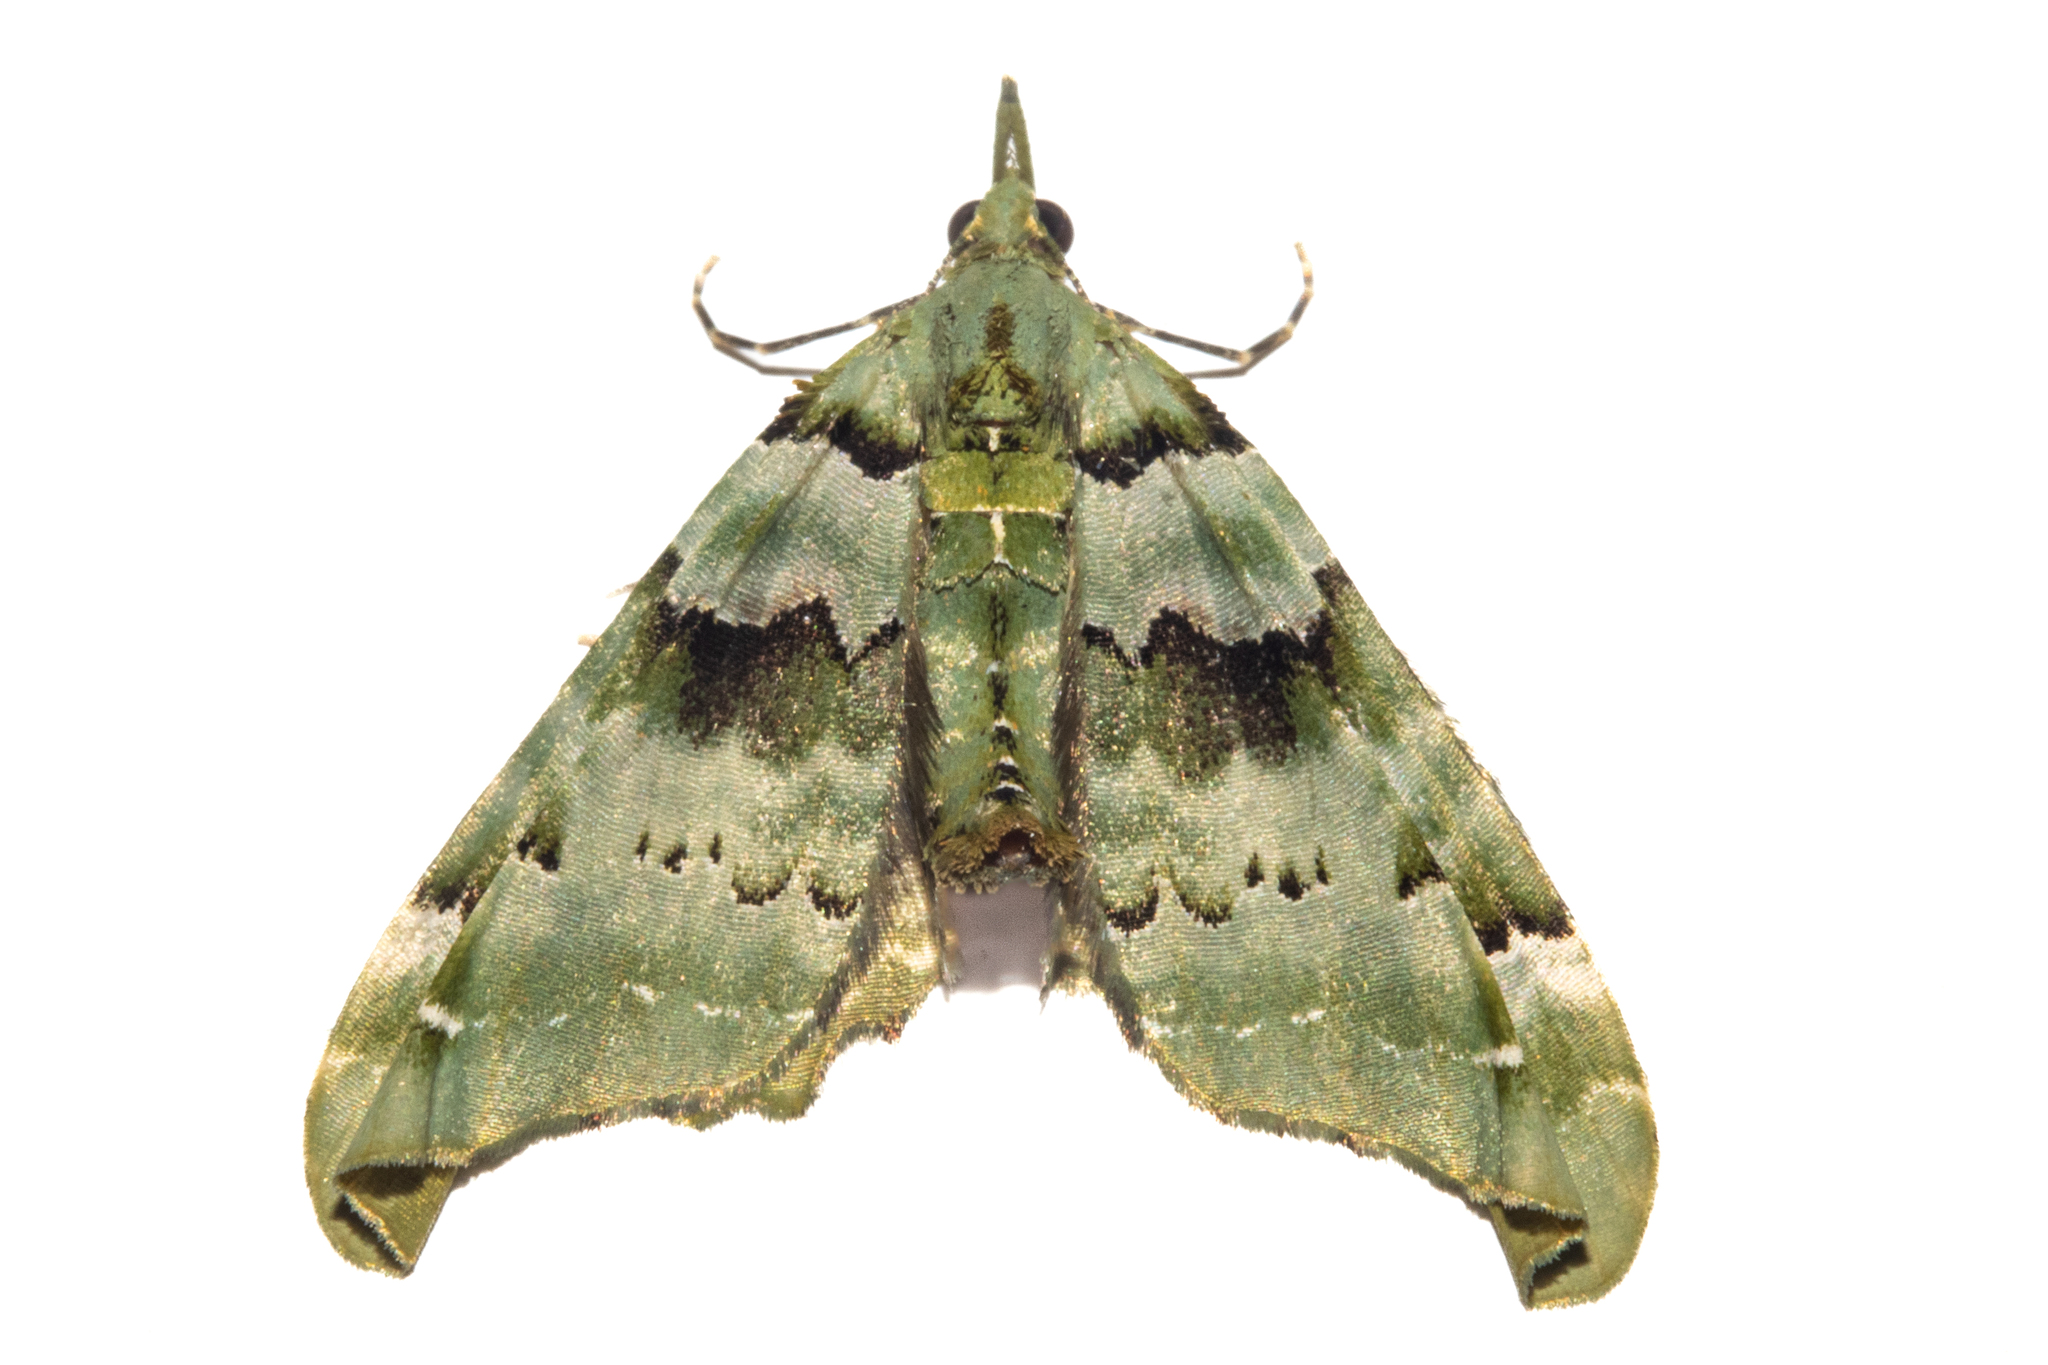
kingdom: Animalia
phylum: Arthropoda
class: Insecta
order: Lepidoptera
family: Geometridae
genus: Elvia
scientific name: Elvia glaucata
